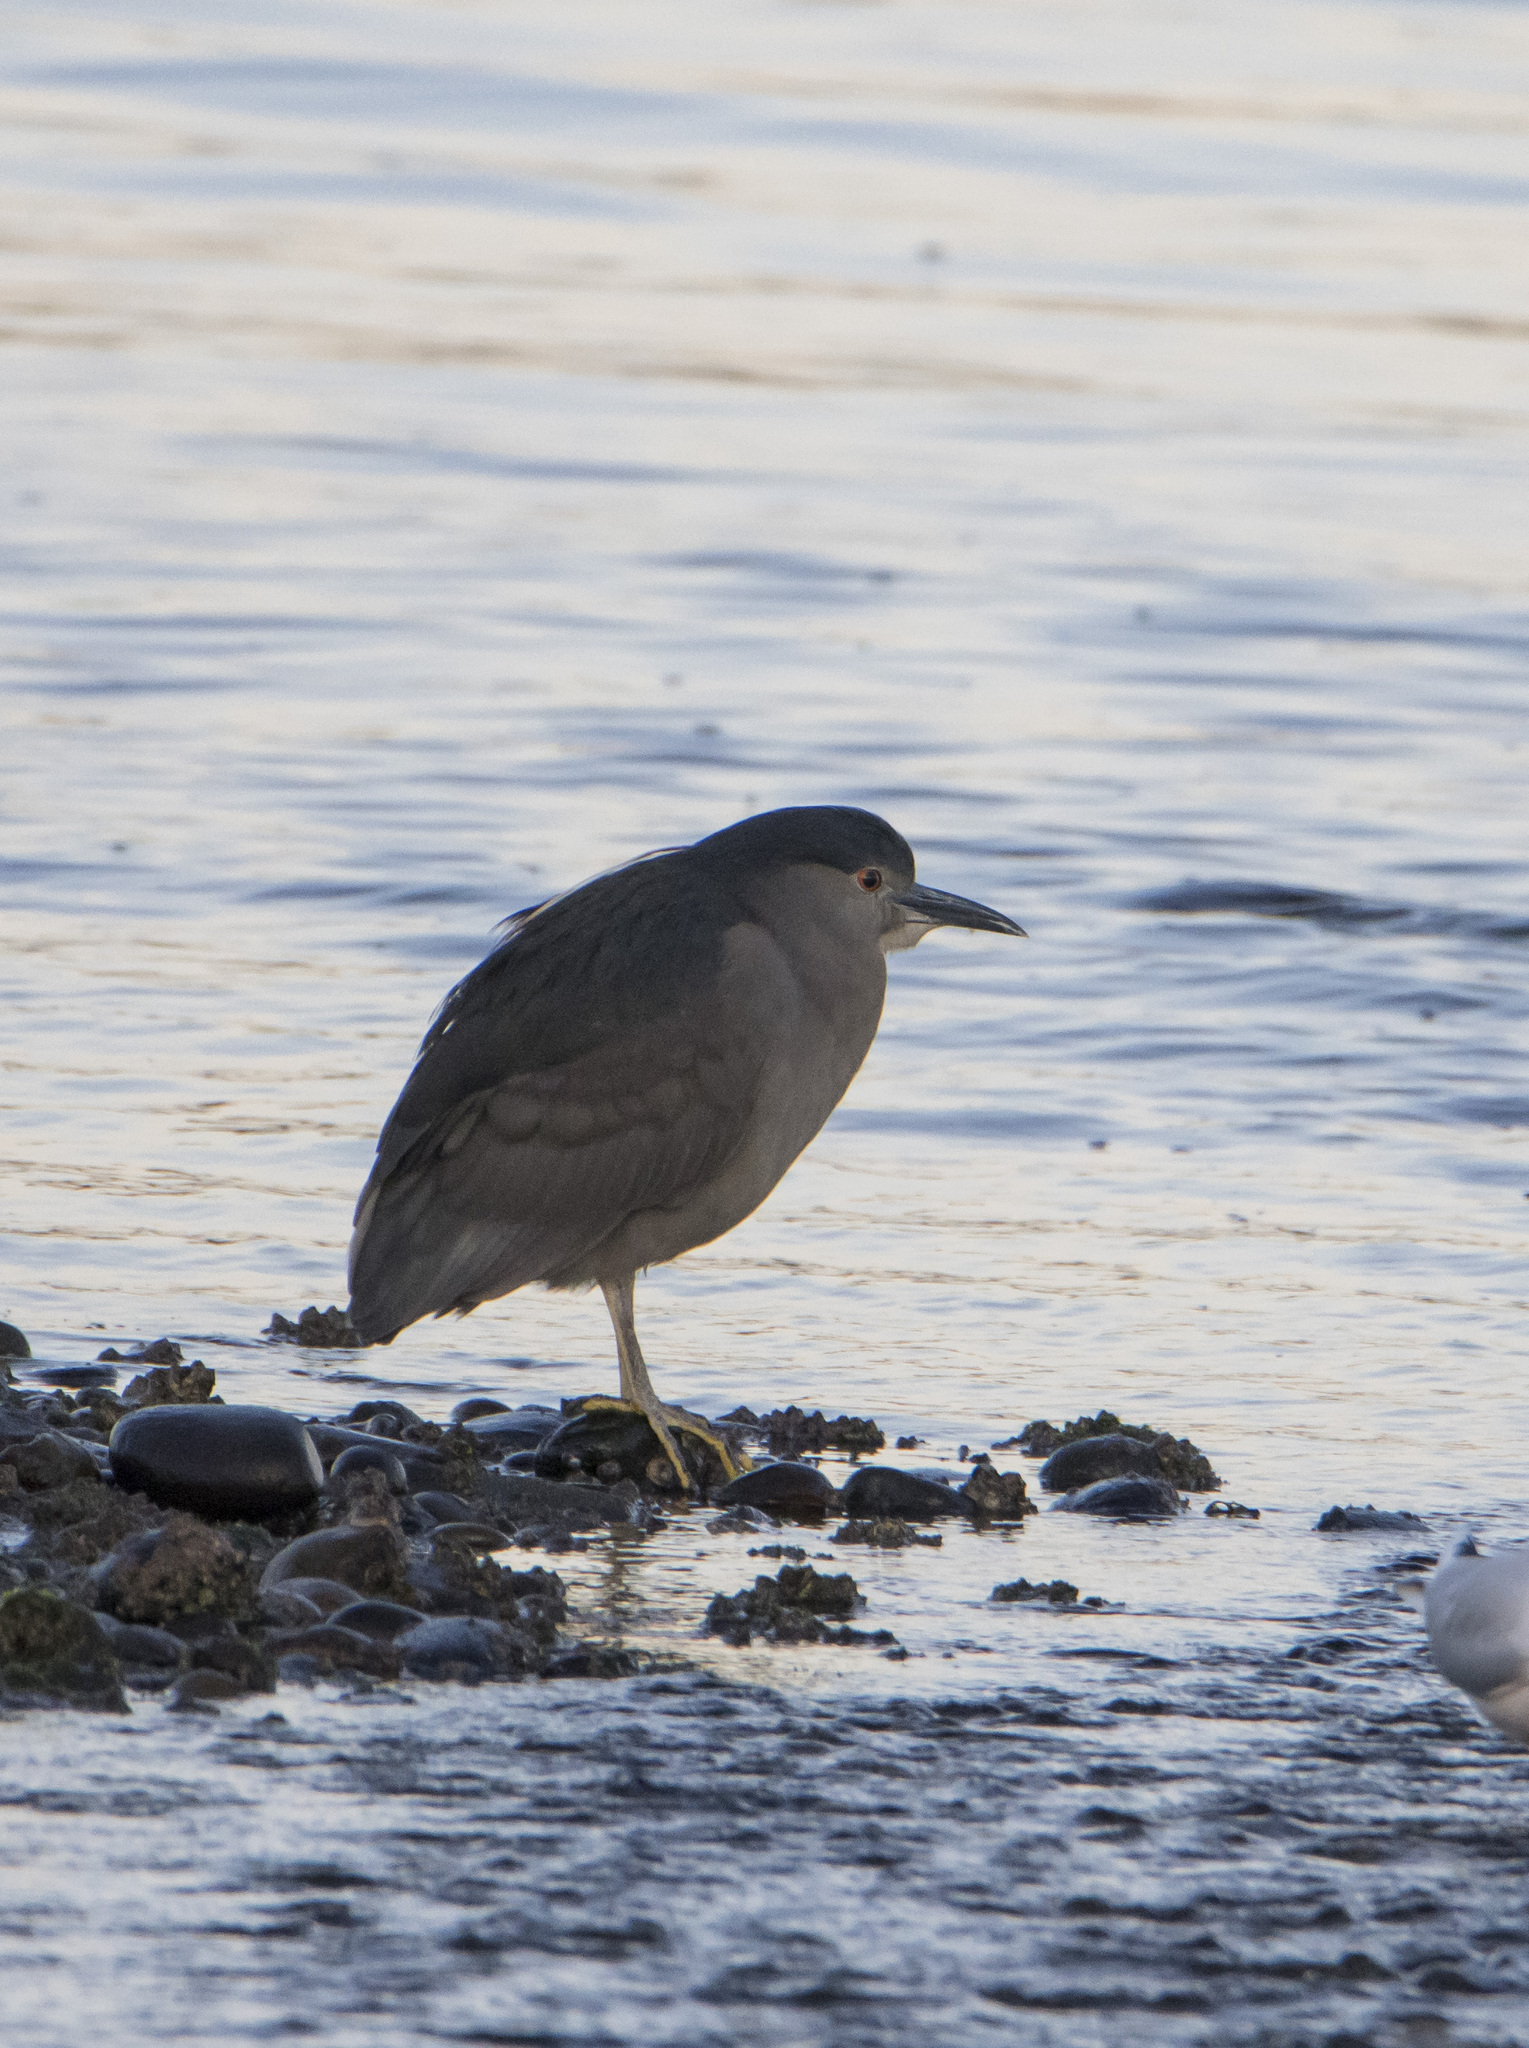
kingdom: Animalia
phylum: Chordata
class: Aves
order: Pelecaniformes
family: Ardeidae
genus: Nycticorax
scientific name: Nycticorax nycticorax
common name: Black-crowned night heron
